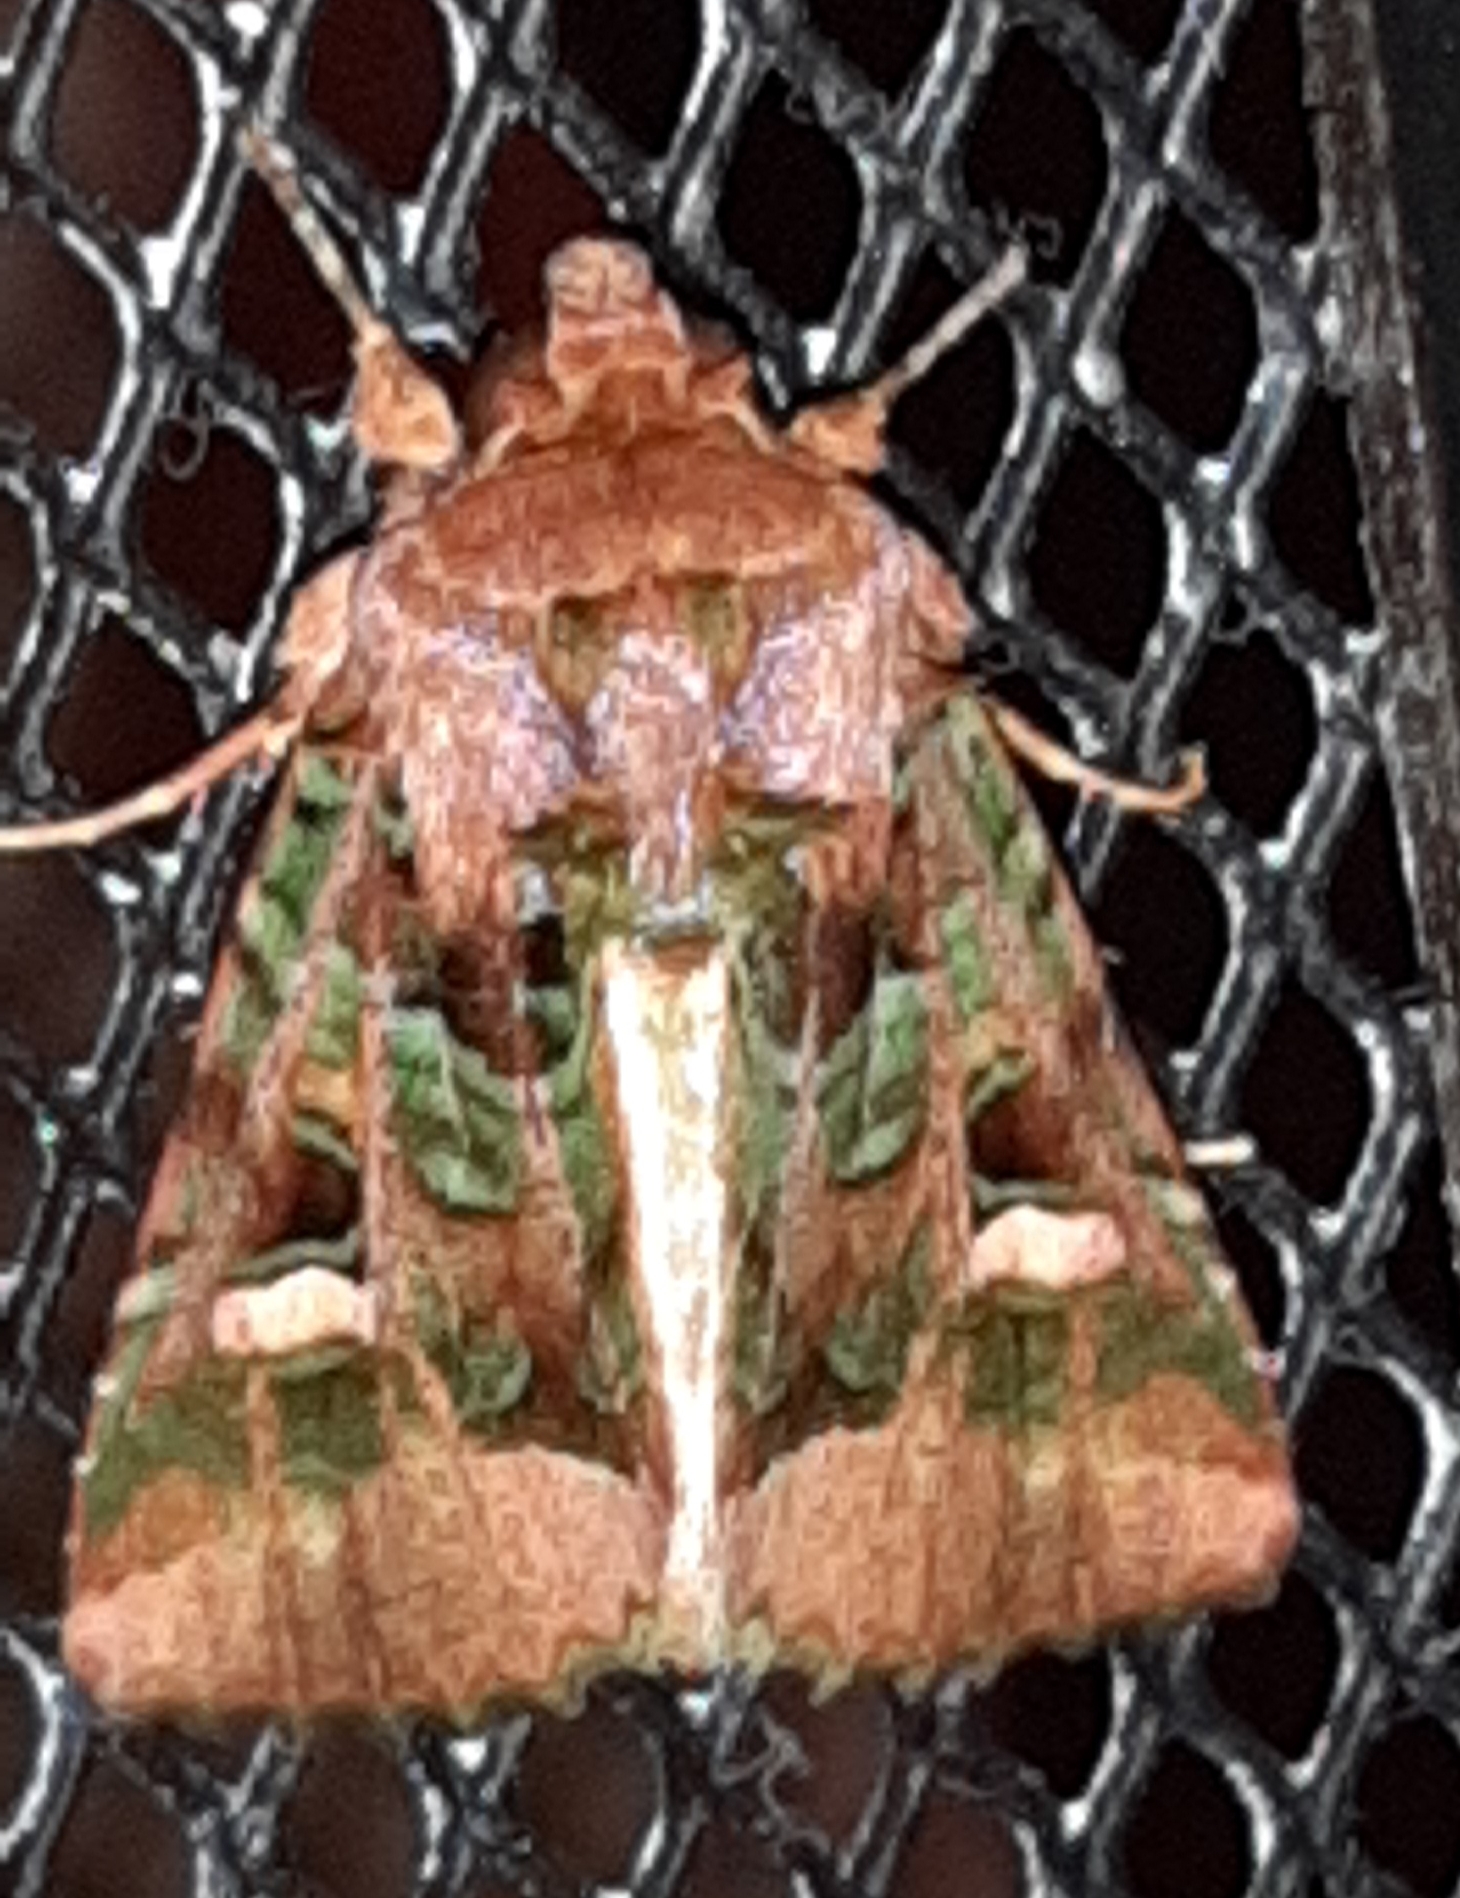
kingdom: Animalia
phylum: Arthropoda
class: Insecta
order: Lepidoptera
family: Noctuidae
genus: Paratrachea
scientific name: Paratrachea laches
